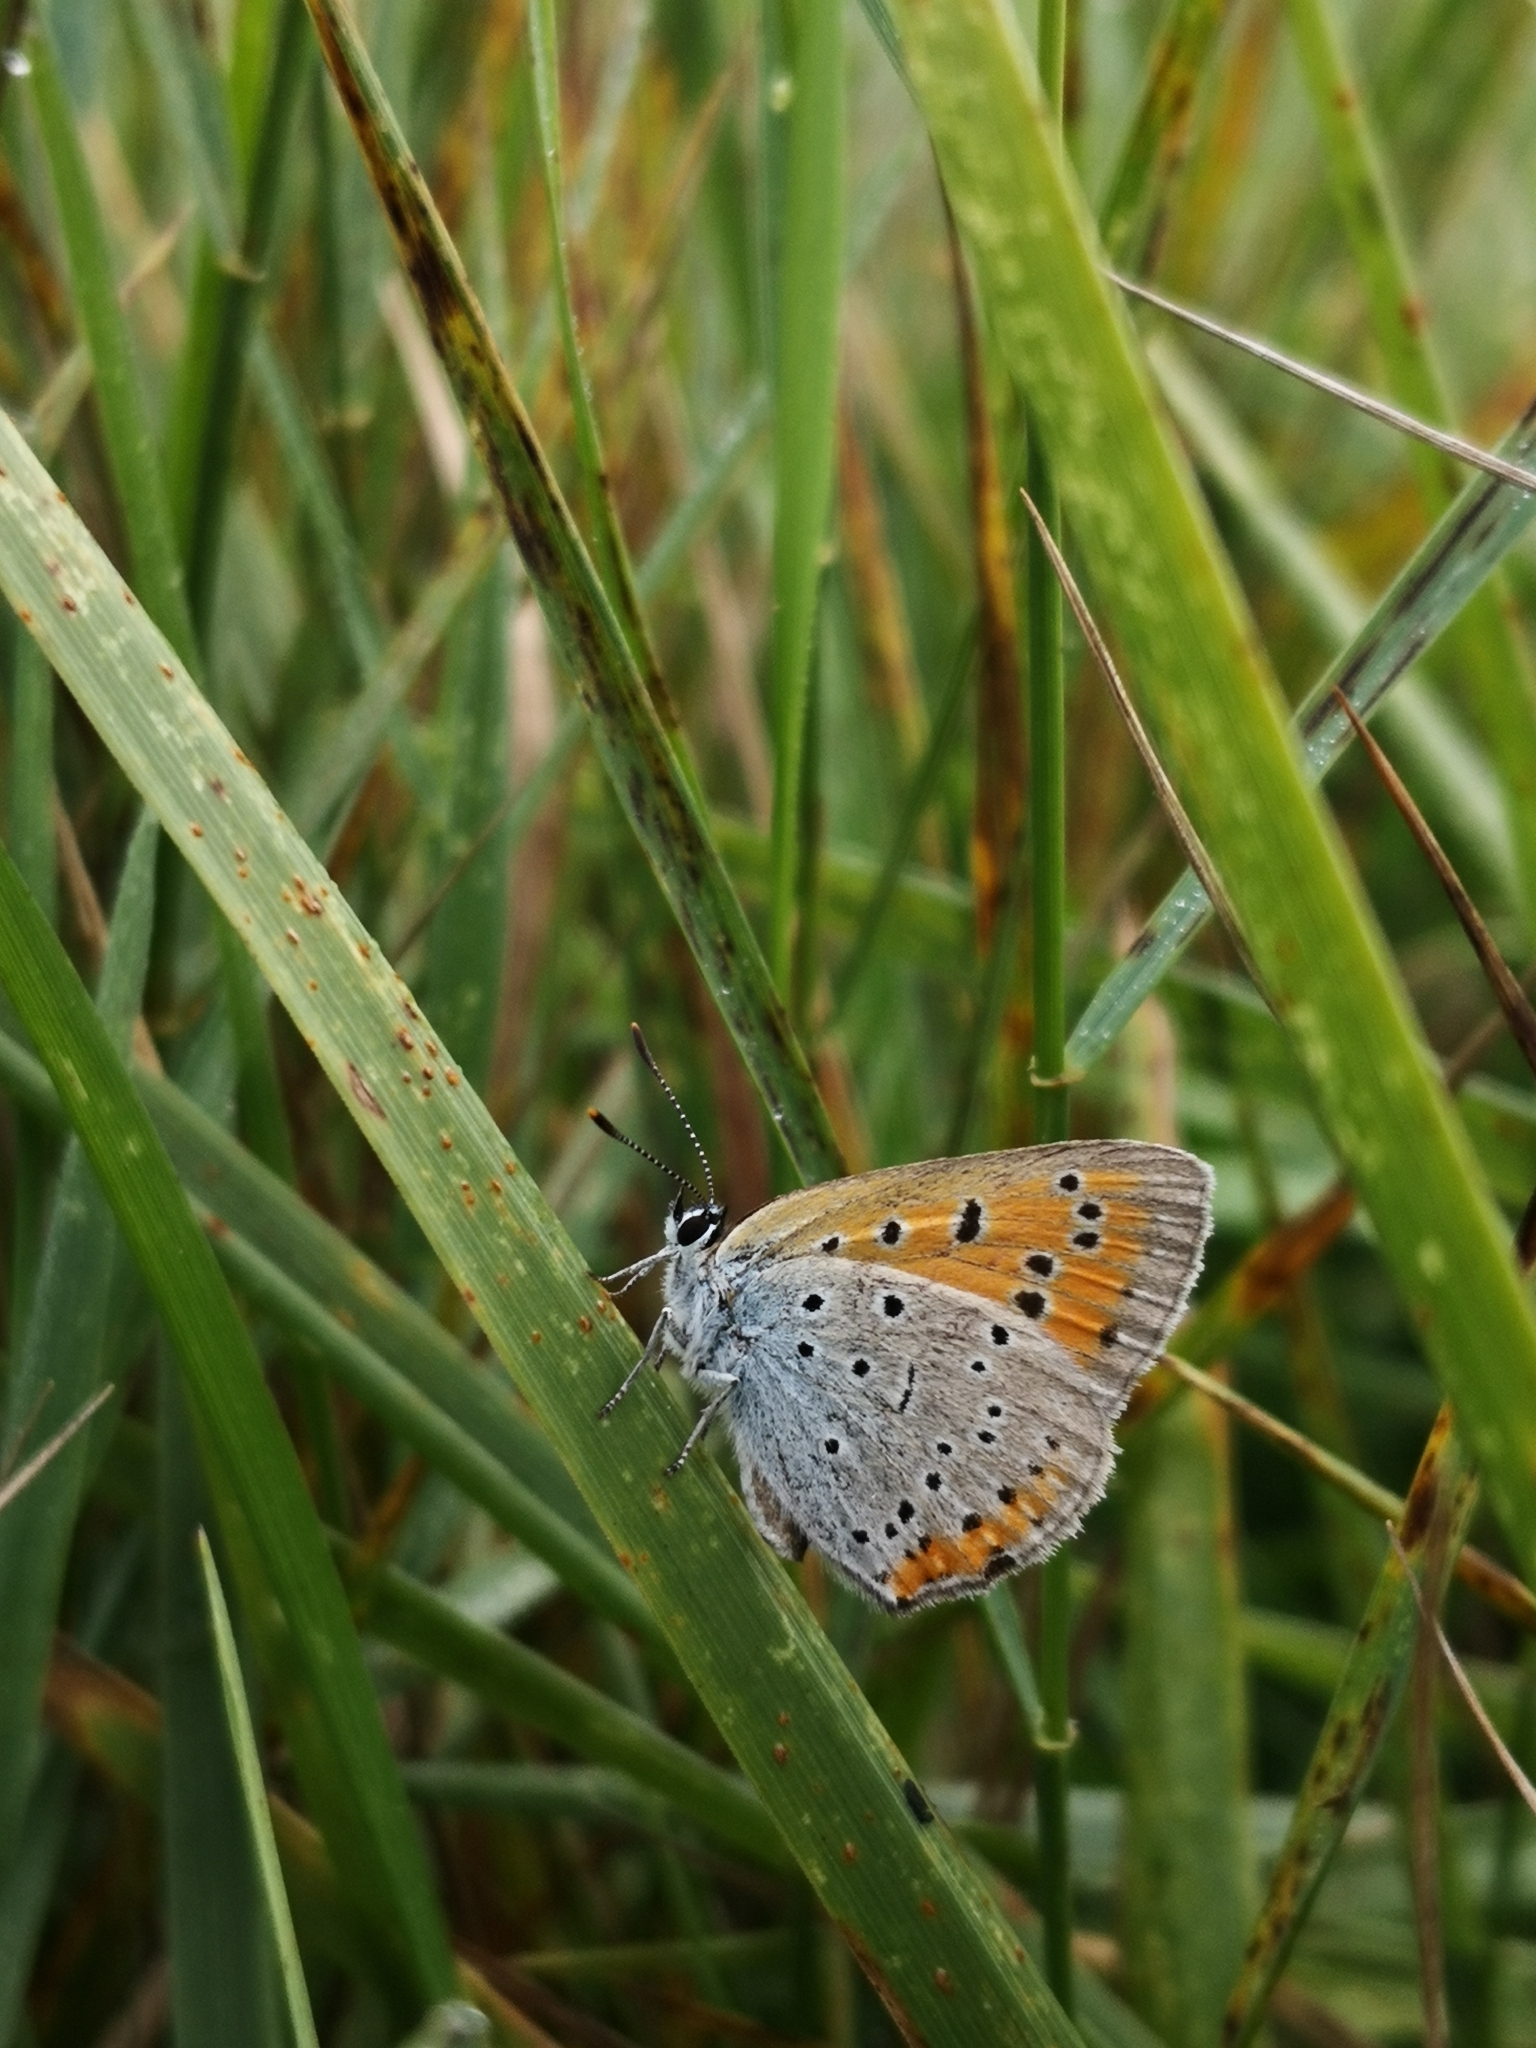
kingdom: Animalia
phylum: Arthropoda
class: Insecta
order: Lepidoptera
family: Lycaenidae
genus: Lycaena
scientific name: Lycaena dispar
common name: Large copper
